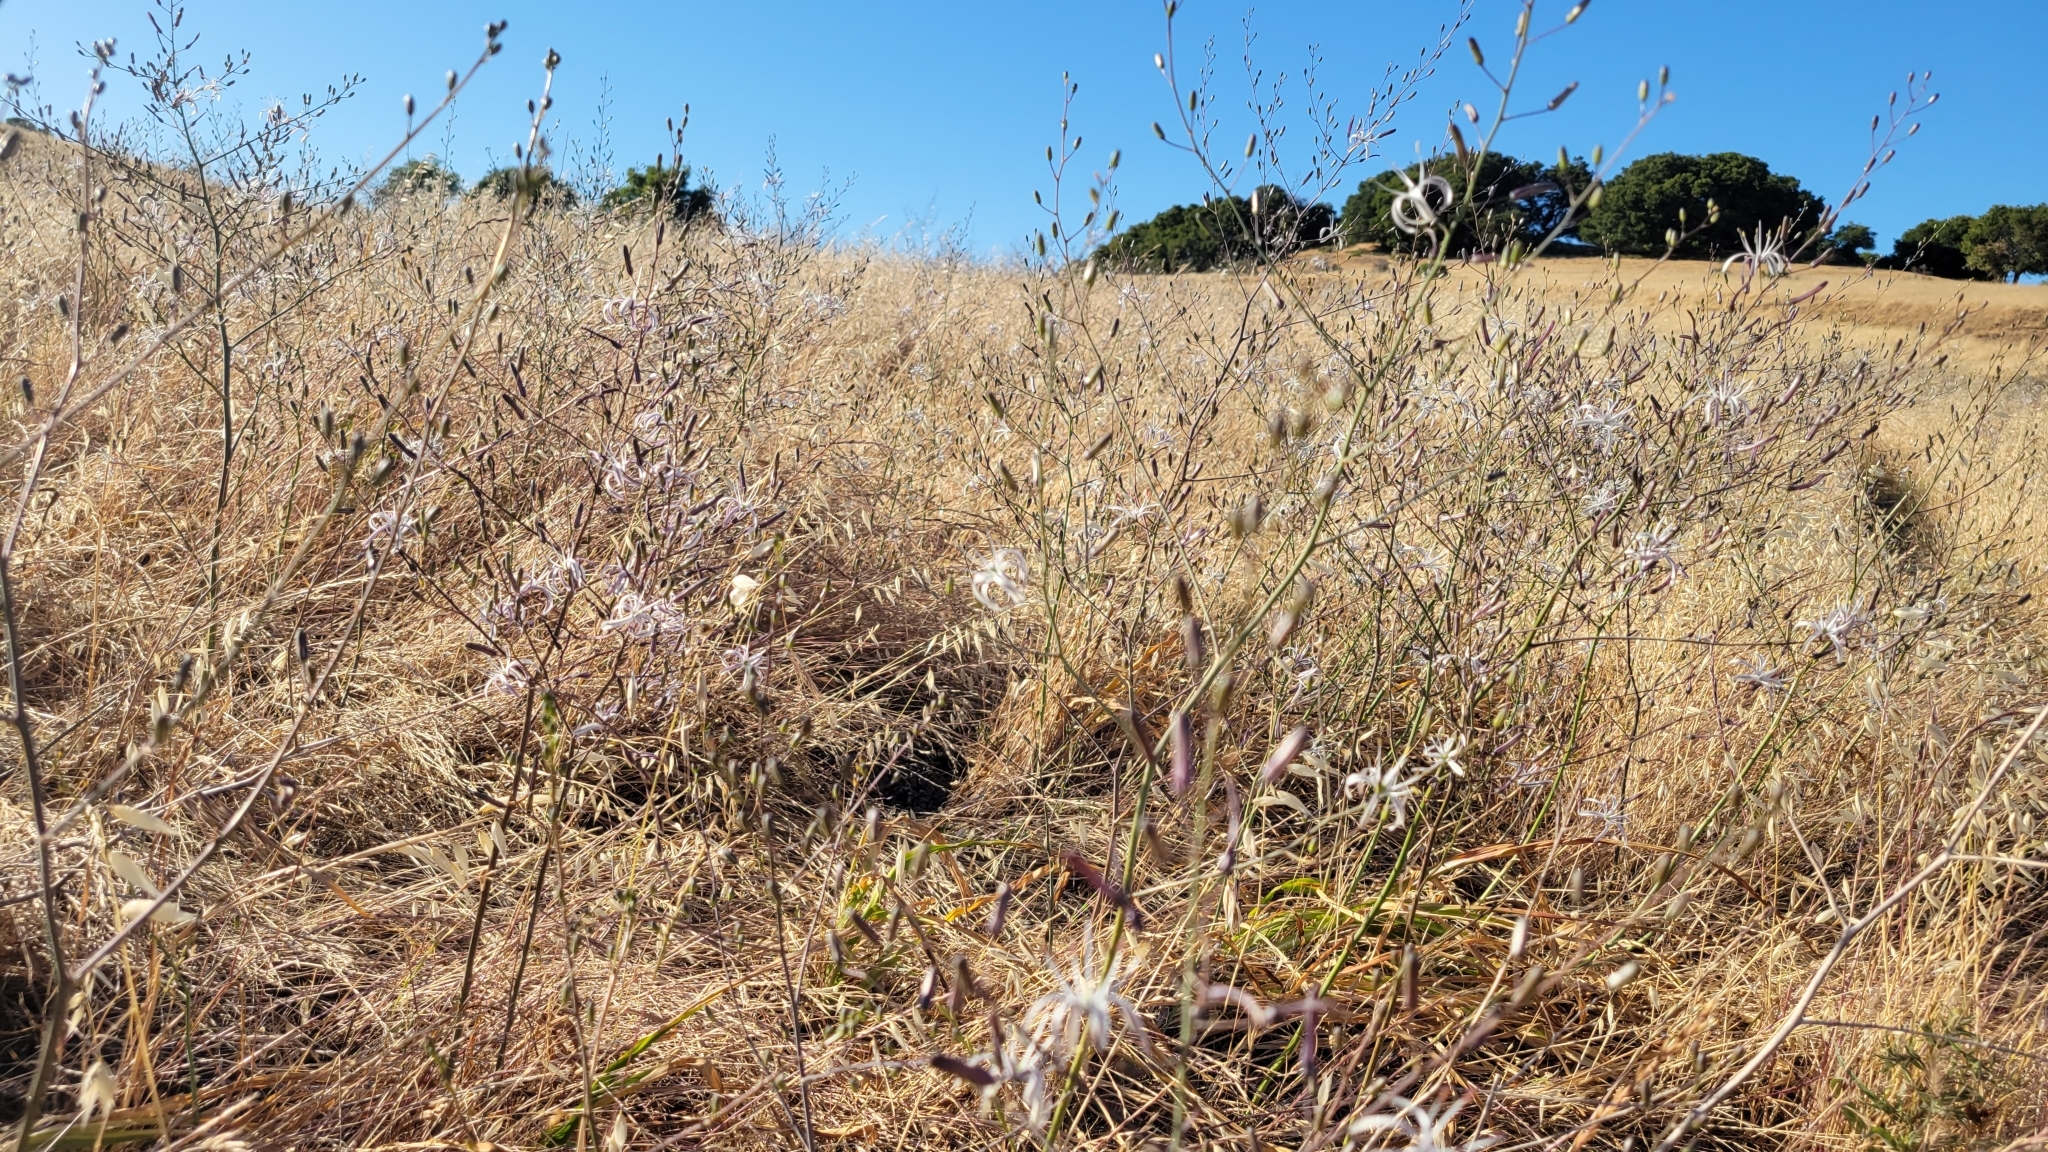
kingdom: Plantae
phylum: Tracheophyta
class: Liliopsida
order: Asparagales
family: Asparagaceae
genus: Chlorogalum
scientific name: Chlorogalum pomeridianum
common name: Amole
